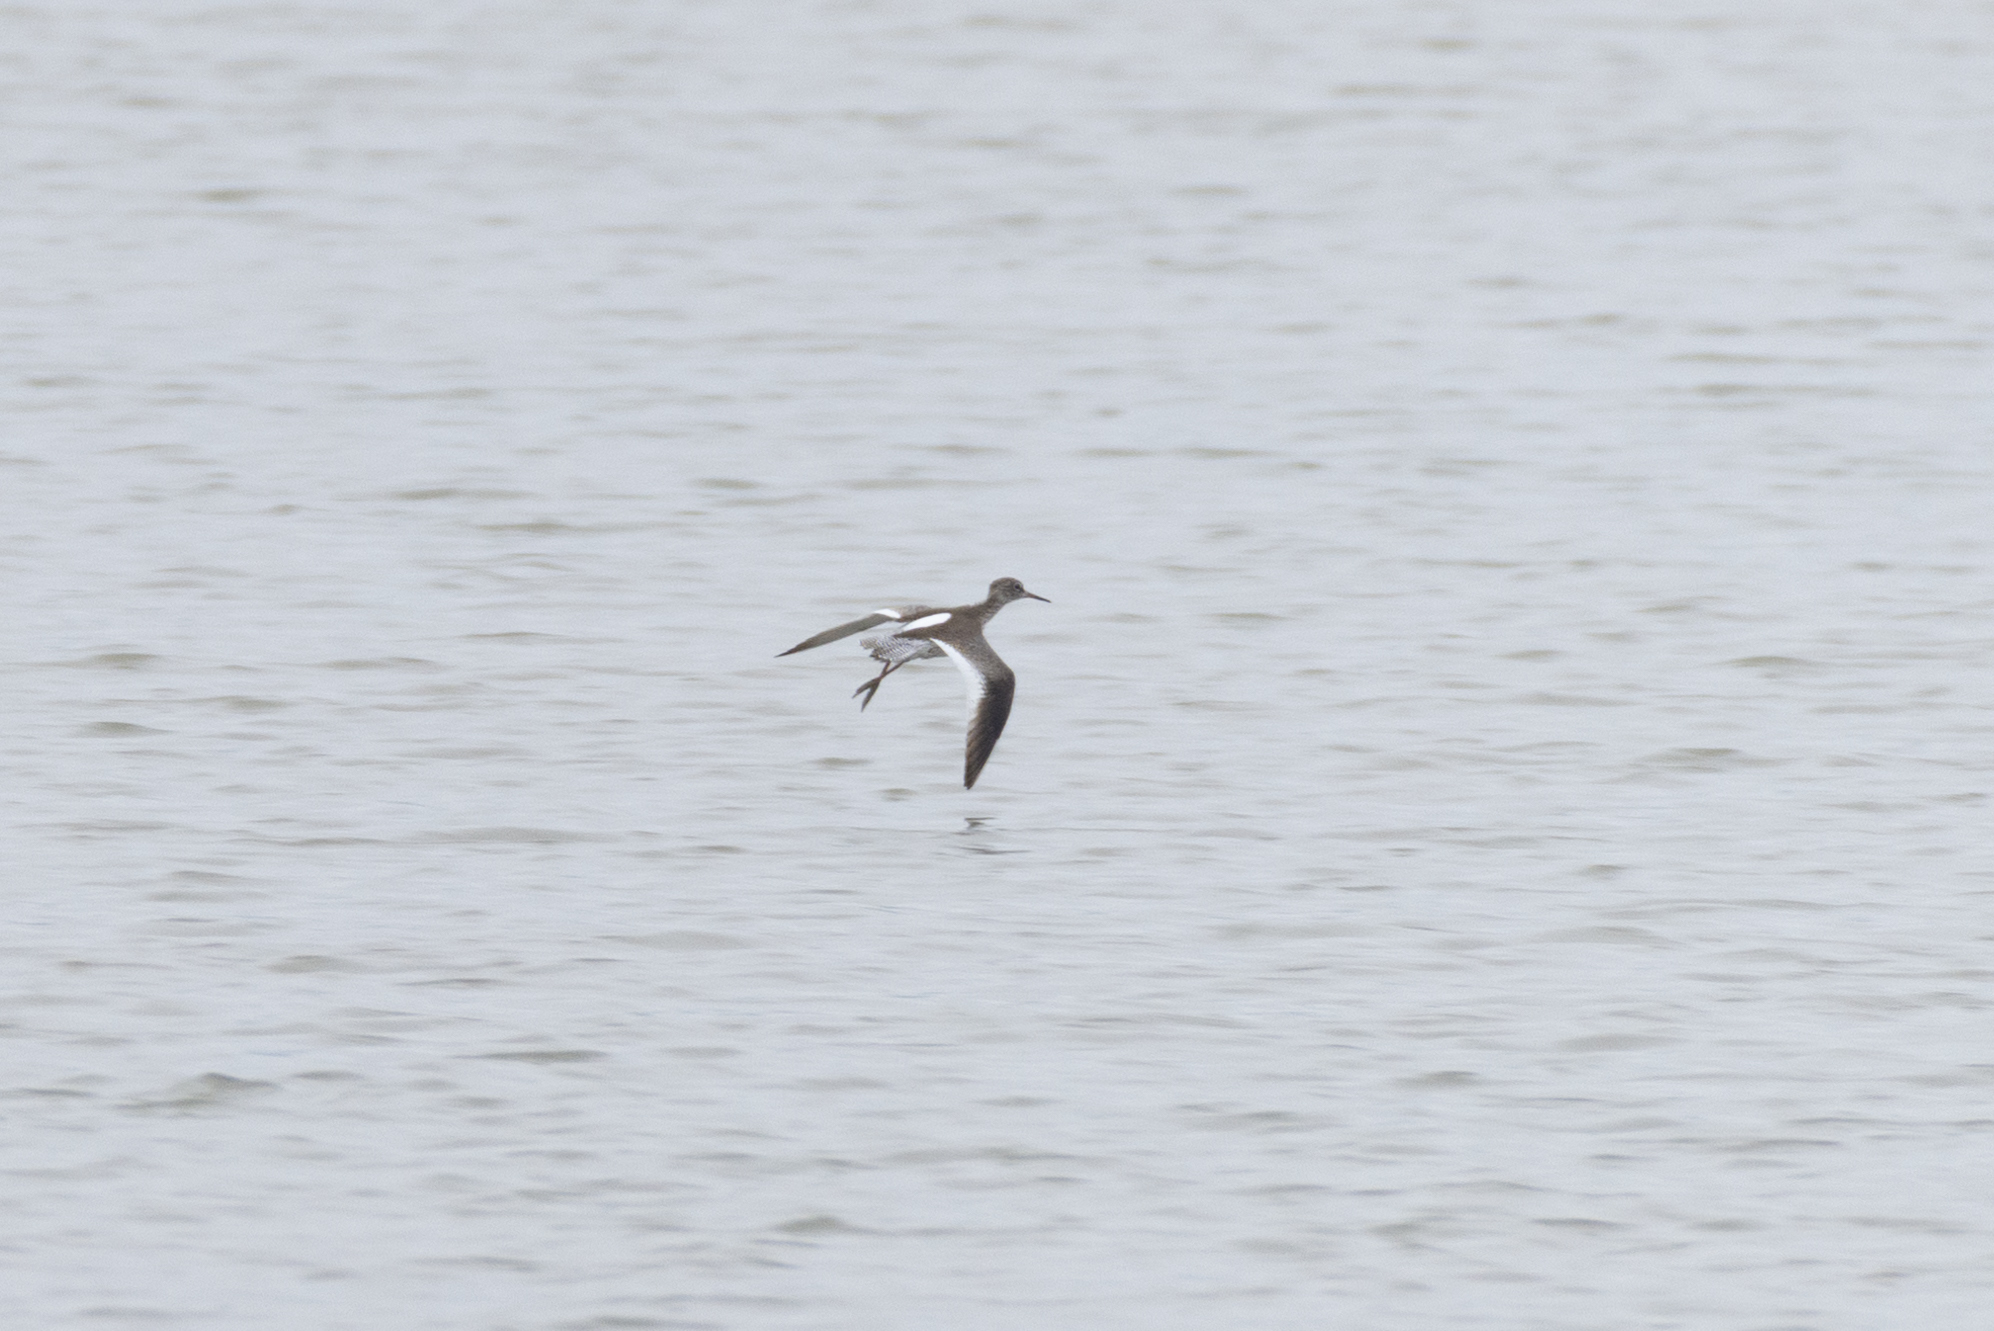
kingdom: Animalia
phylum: Chordata
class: Aves
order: Charadriiformes
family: Scolopacidae
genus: Tringa
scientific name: Tringa totanus
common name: Common redshank
